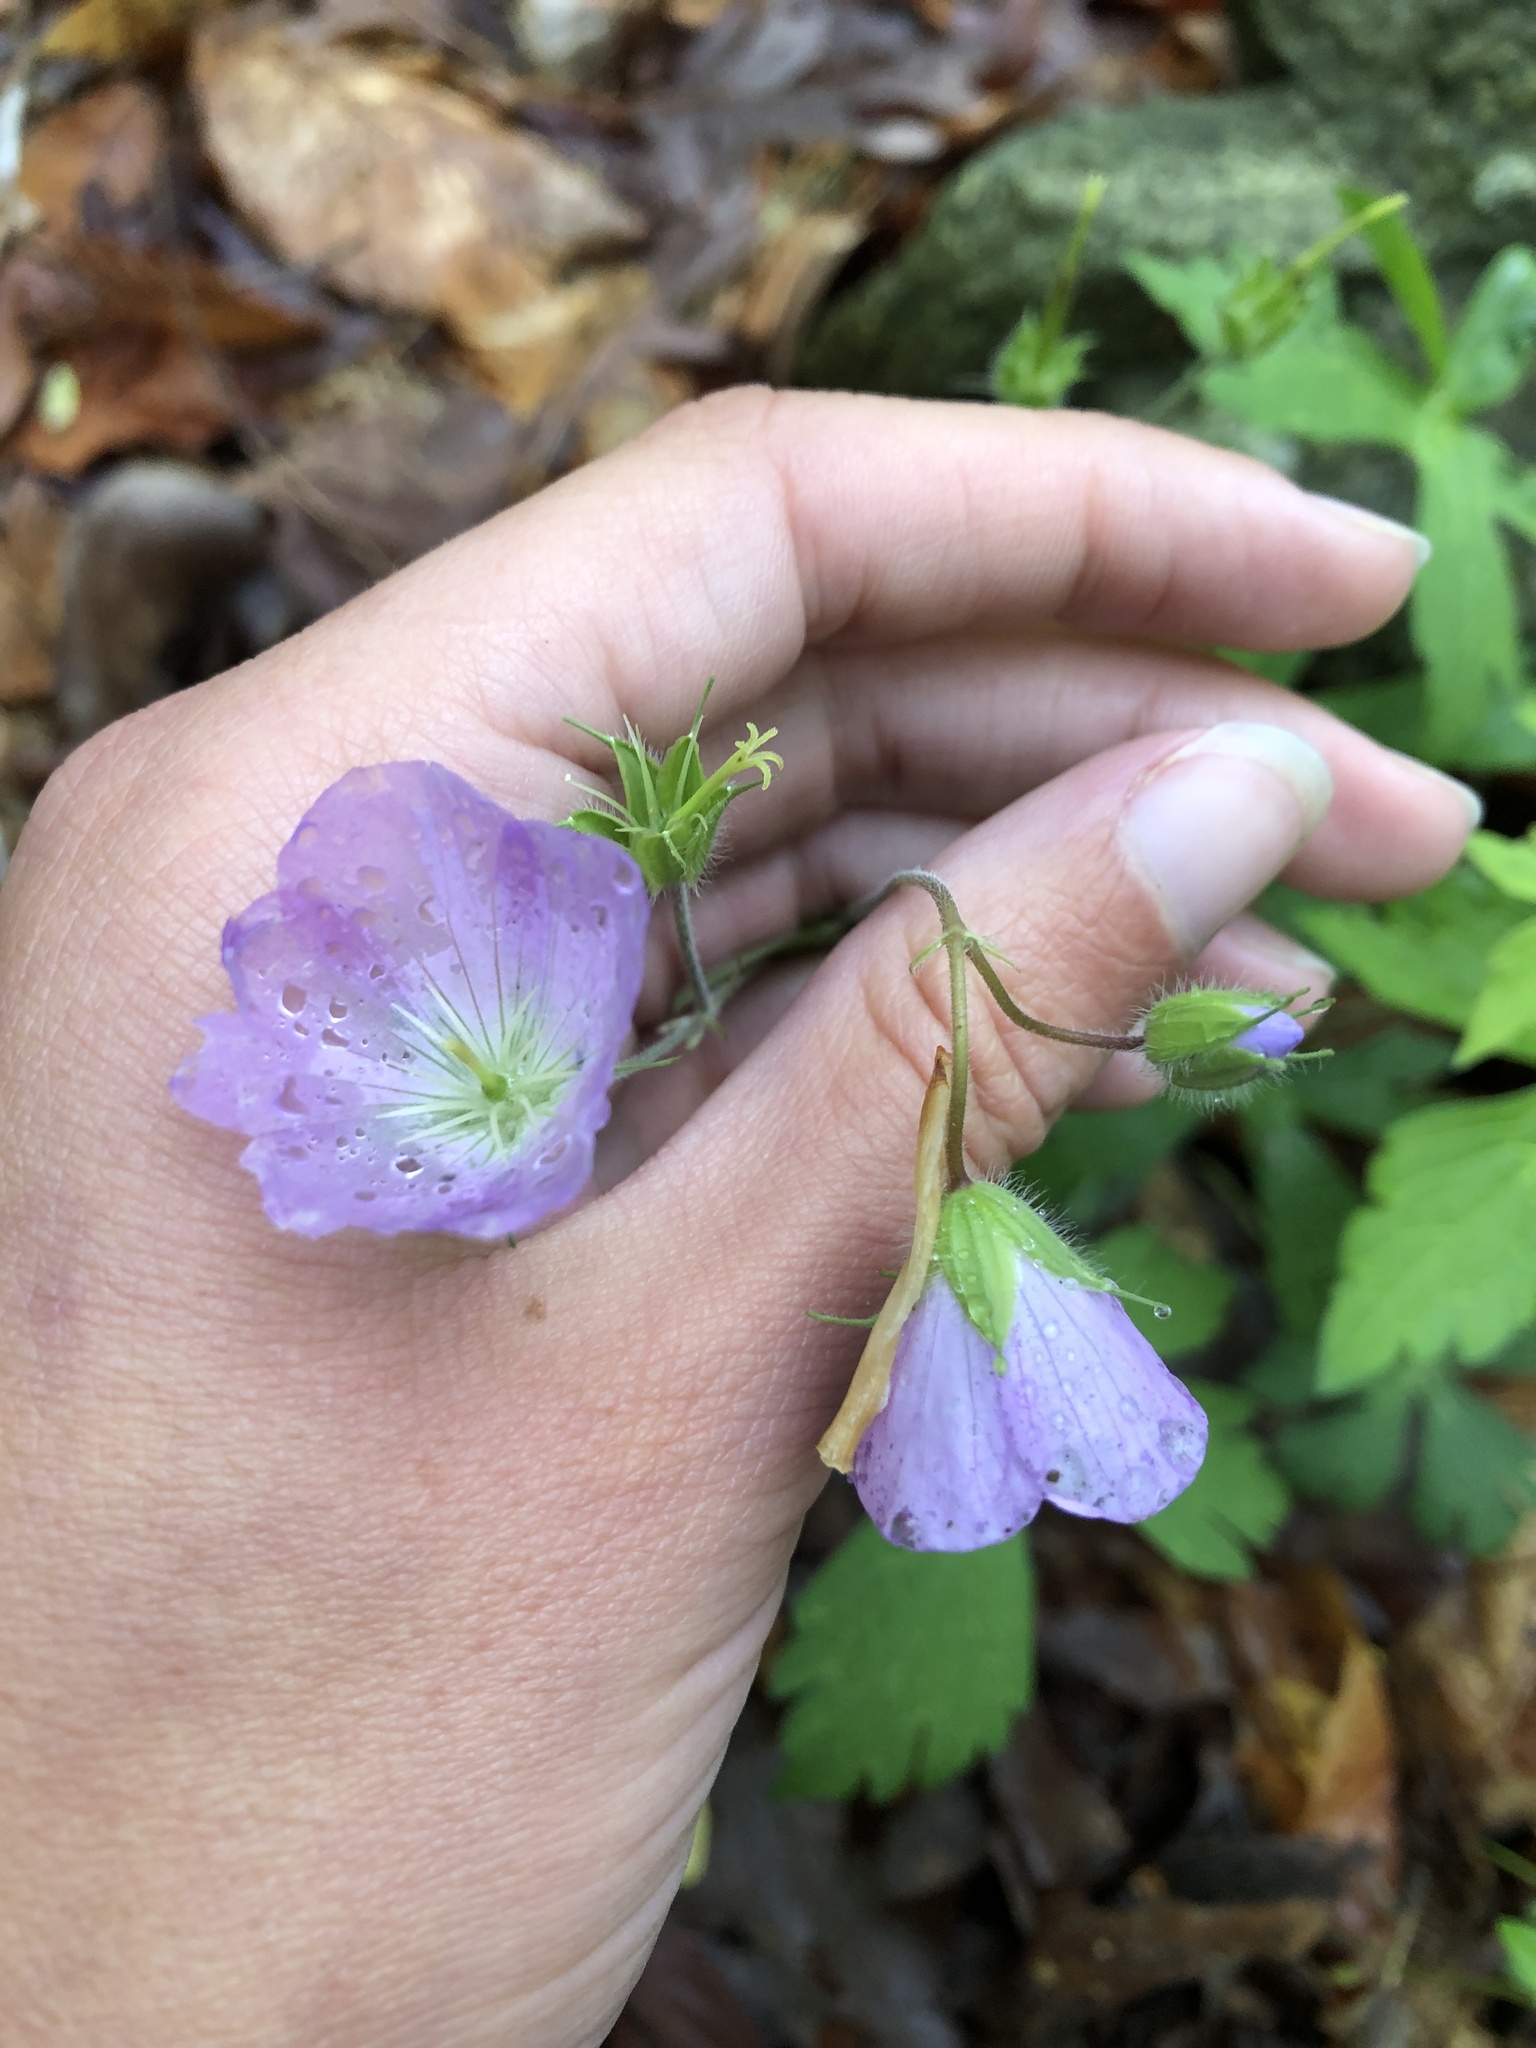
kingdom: Plantae
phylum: Tracheophyta
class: Magnoliopsida
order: Geraniales
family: Geraniaceae
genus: Geranium
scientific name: Geranium maculatum
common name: Spotted geranium
